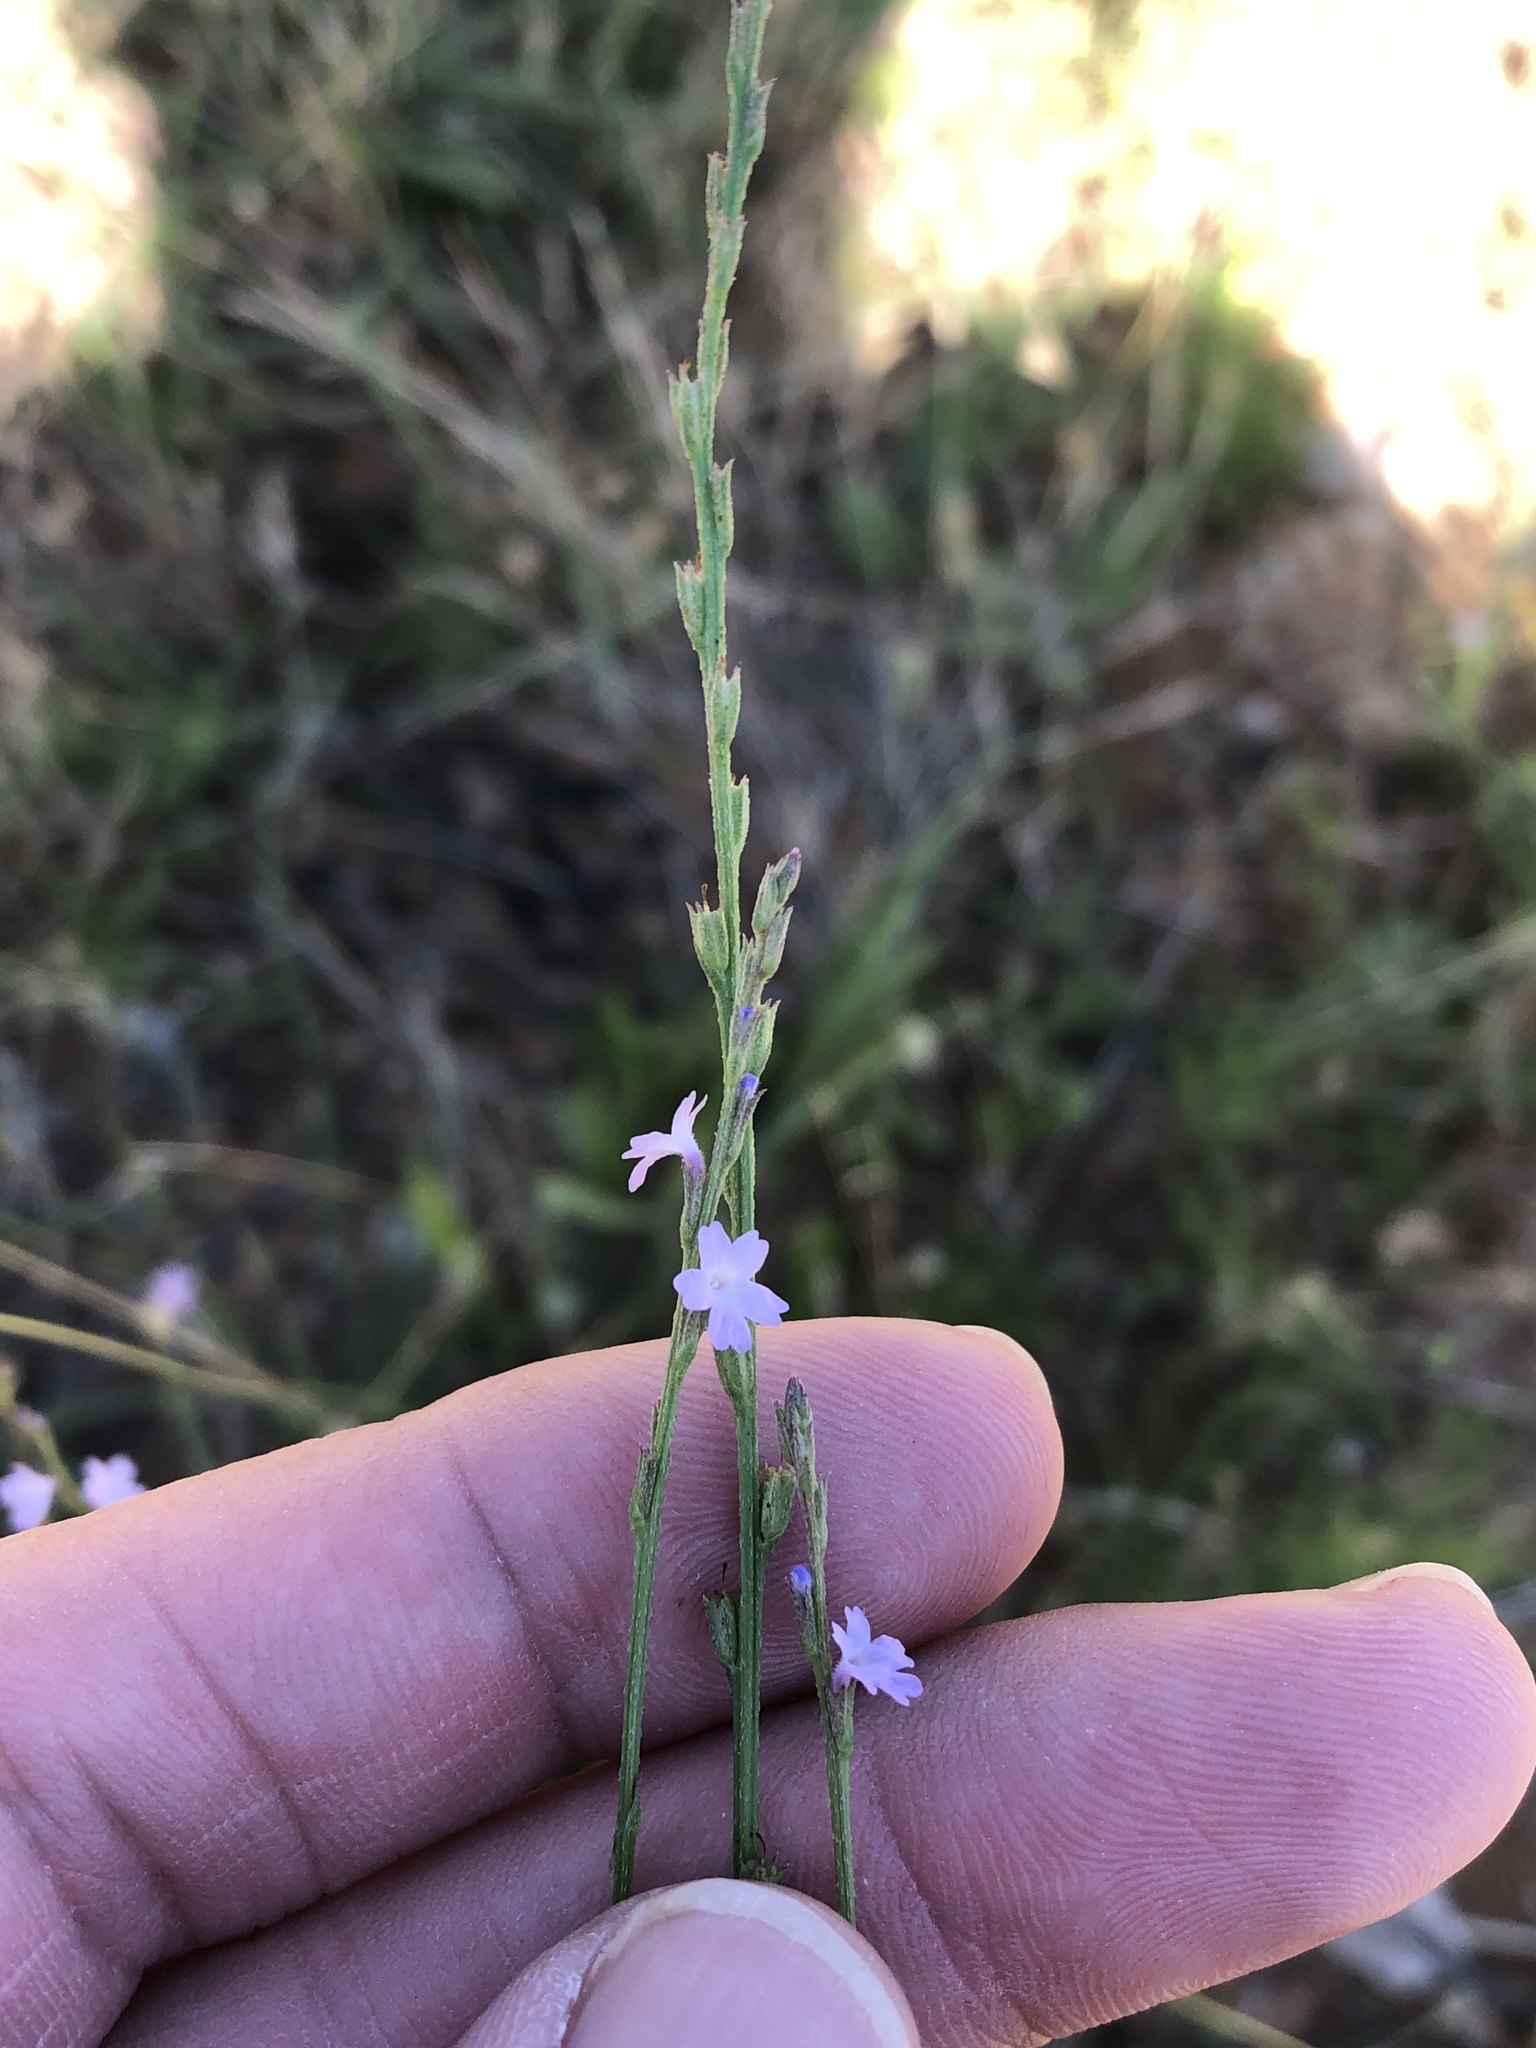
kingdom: Plantae
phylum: Tracheophyta
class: Magnoliopsida
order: Lamiales
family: Verbenaceae
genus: Verbena
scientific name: Verbena halei
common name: Texas vervain
